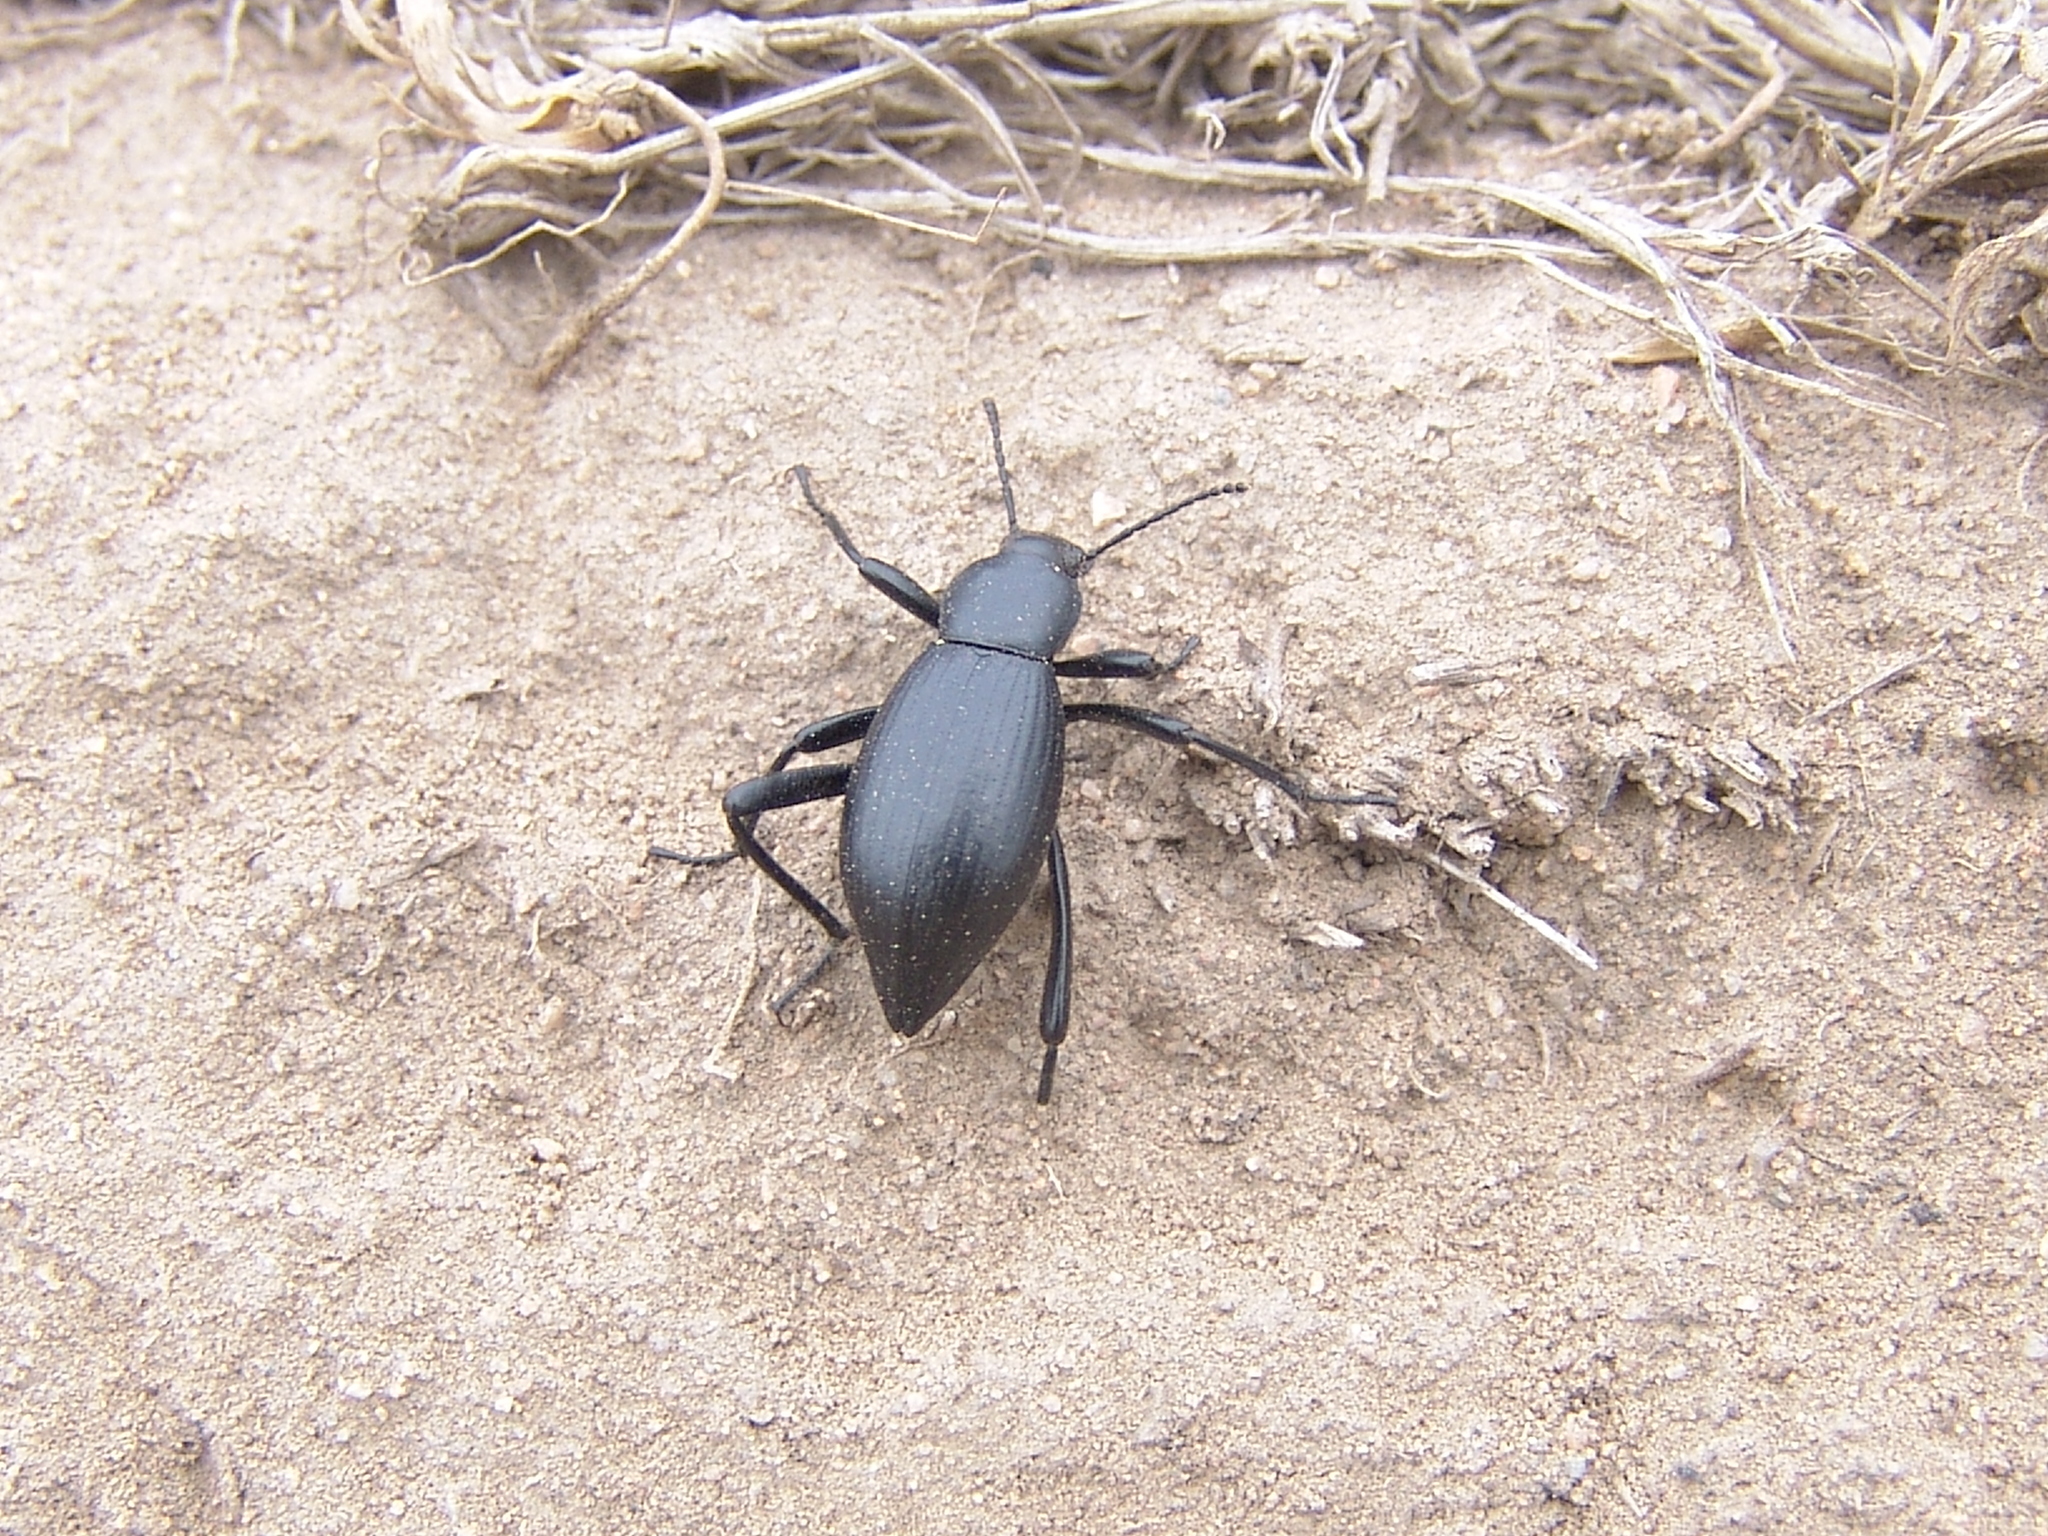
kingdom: Animalia
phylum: Arthropoda
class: Insecta
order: Coleoptera
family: Tenebrionidae
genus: Eleodes
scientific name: Eleodes gracilis
